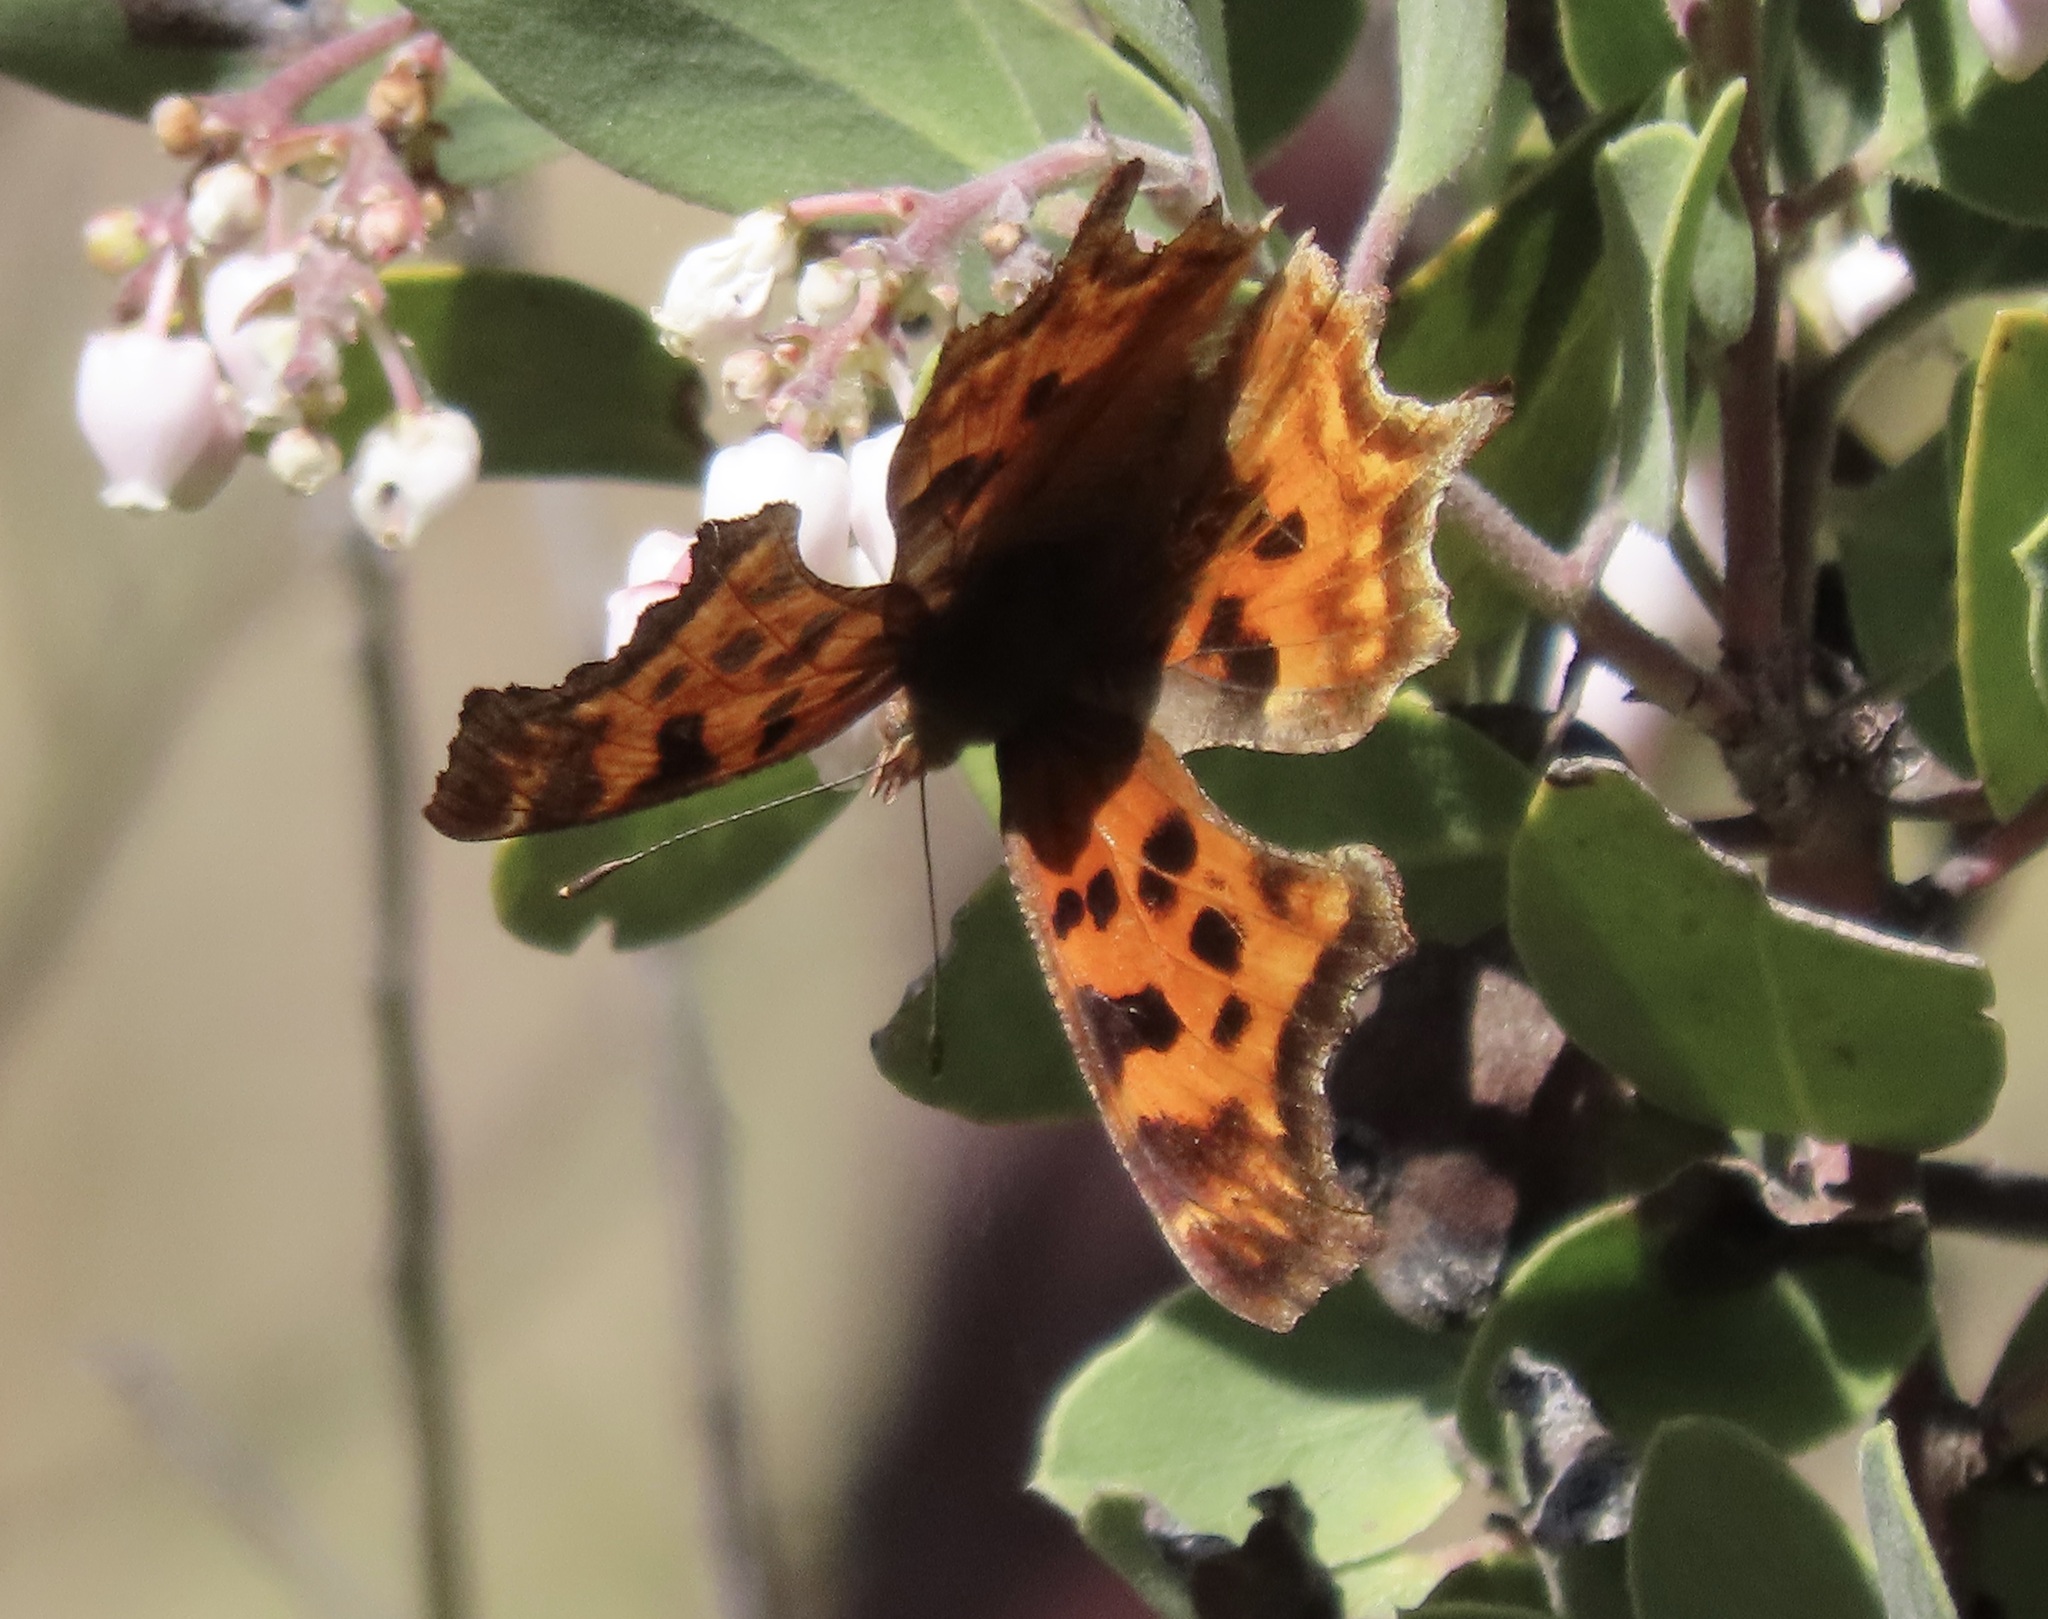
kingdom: Animalia
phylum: Arthropoda
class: Insecta
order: Lepidoptera
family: Nymphalidae
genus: Polygonia
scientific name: Polygonia satyrus
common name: Satyr angle wing
